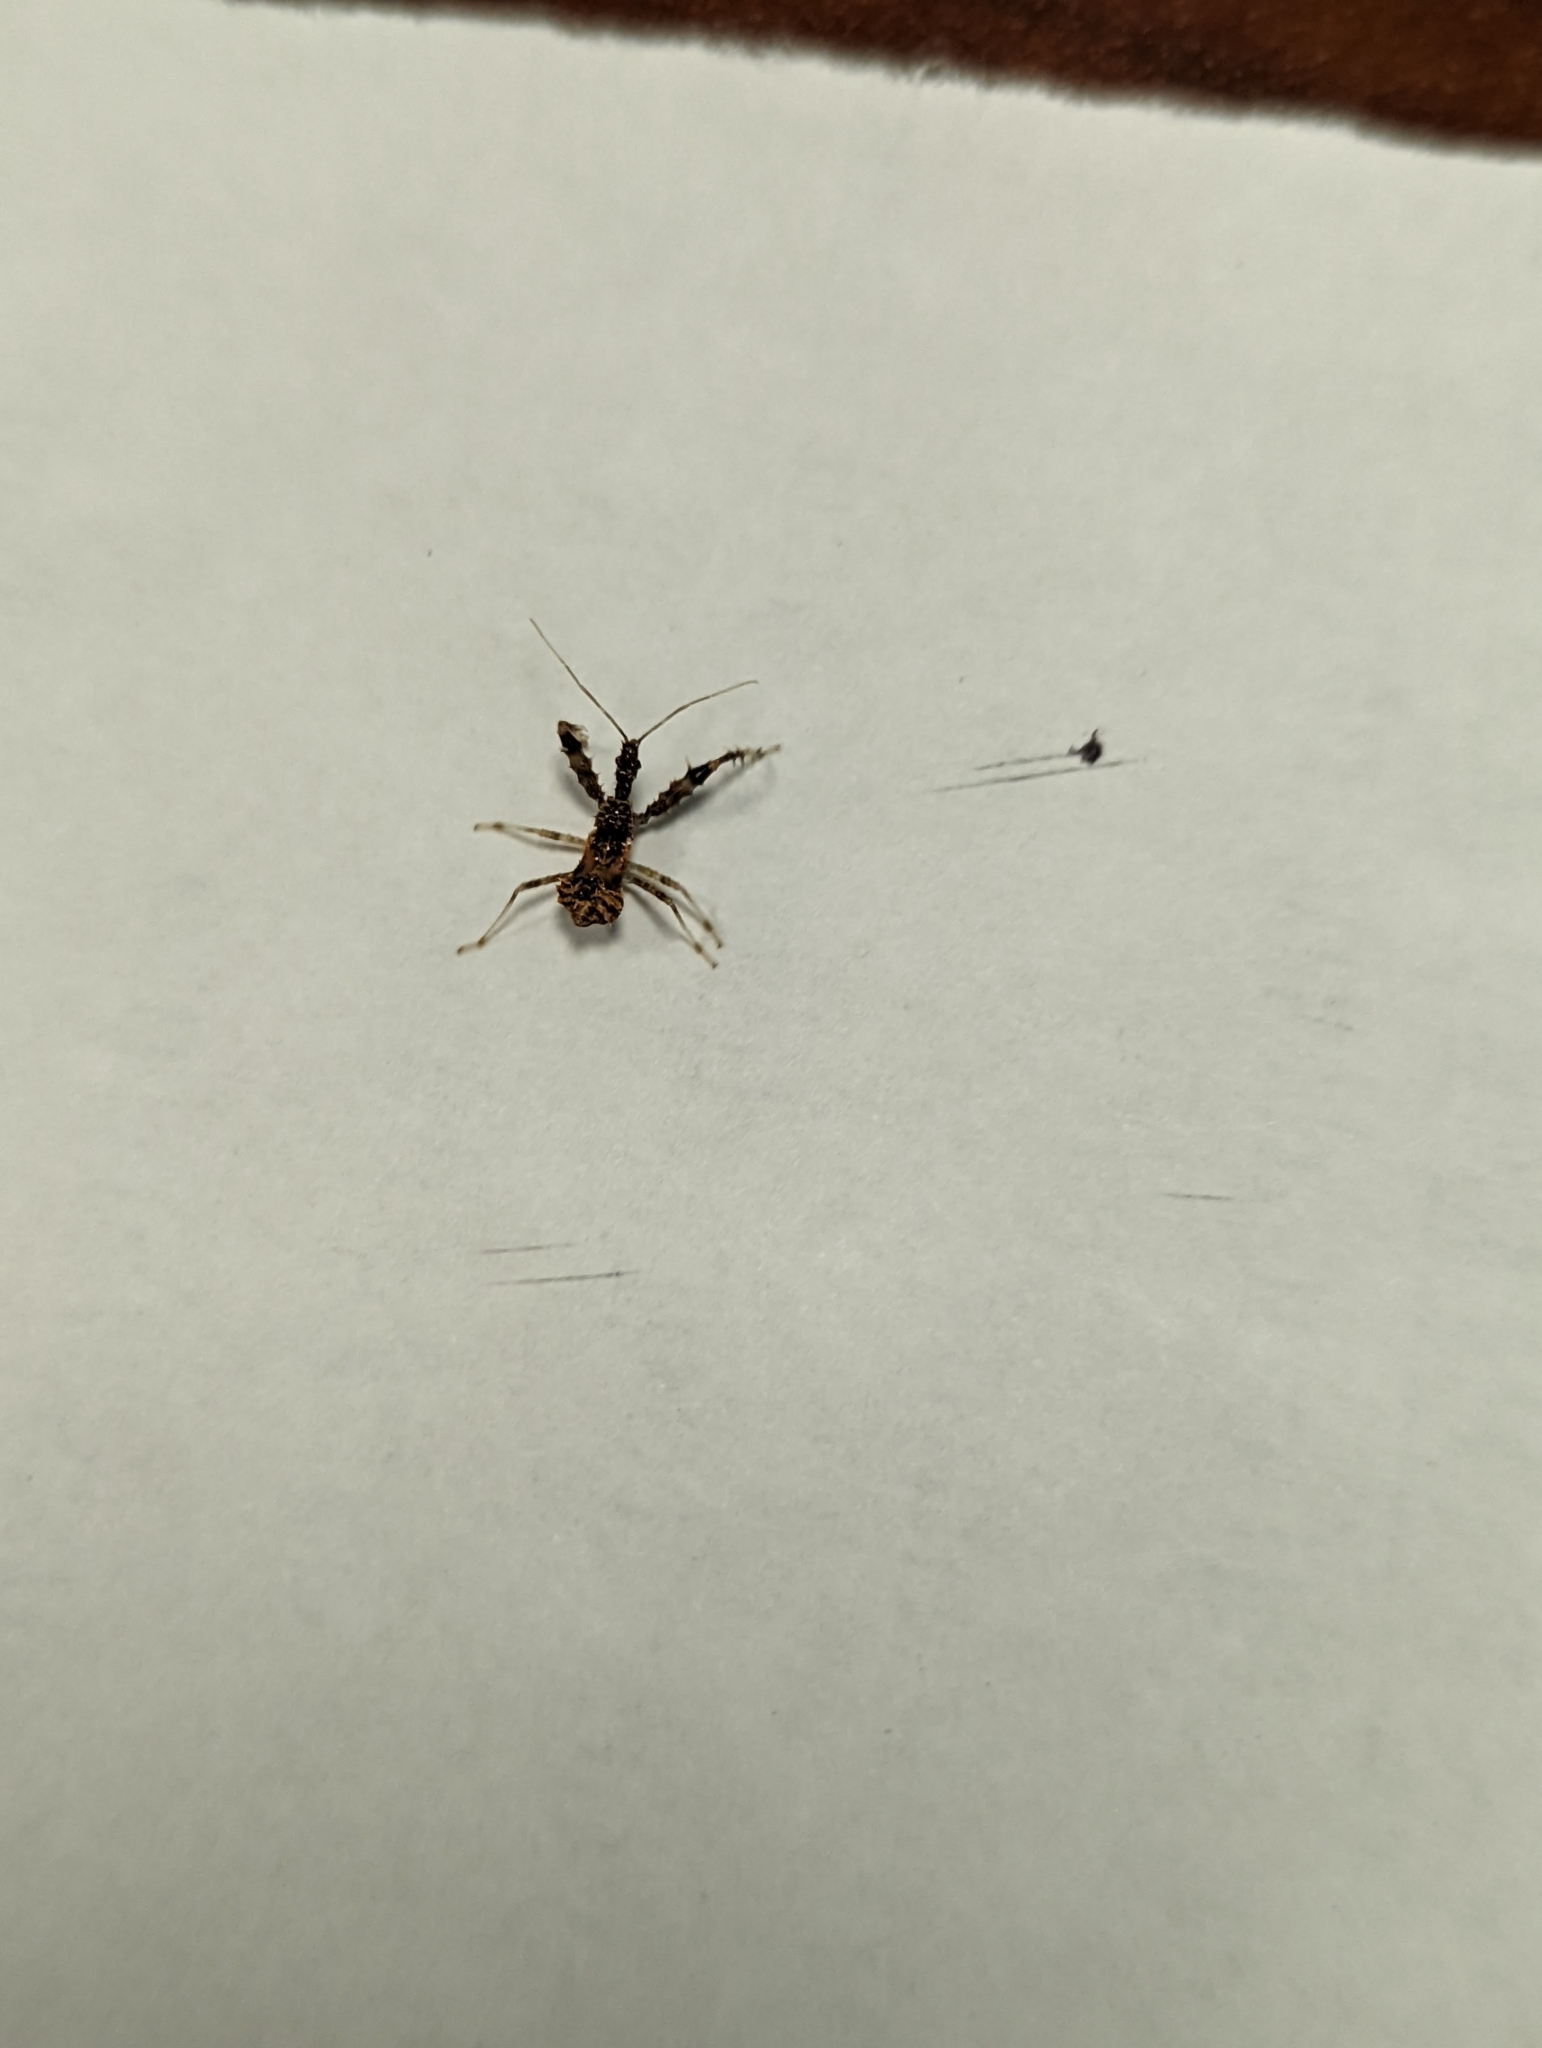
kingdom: Animalia
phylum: Arthropoda
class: Insecta
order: Hemiptera
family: Reduviidae
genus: Sinea
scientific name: Sinea spinipes
